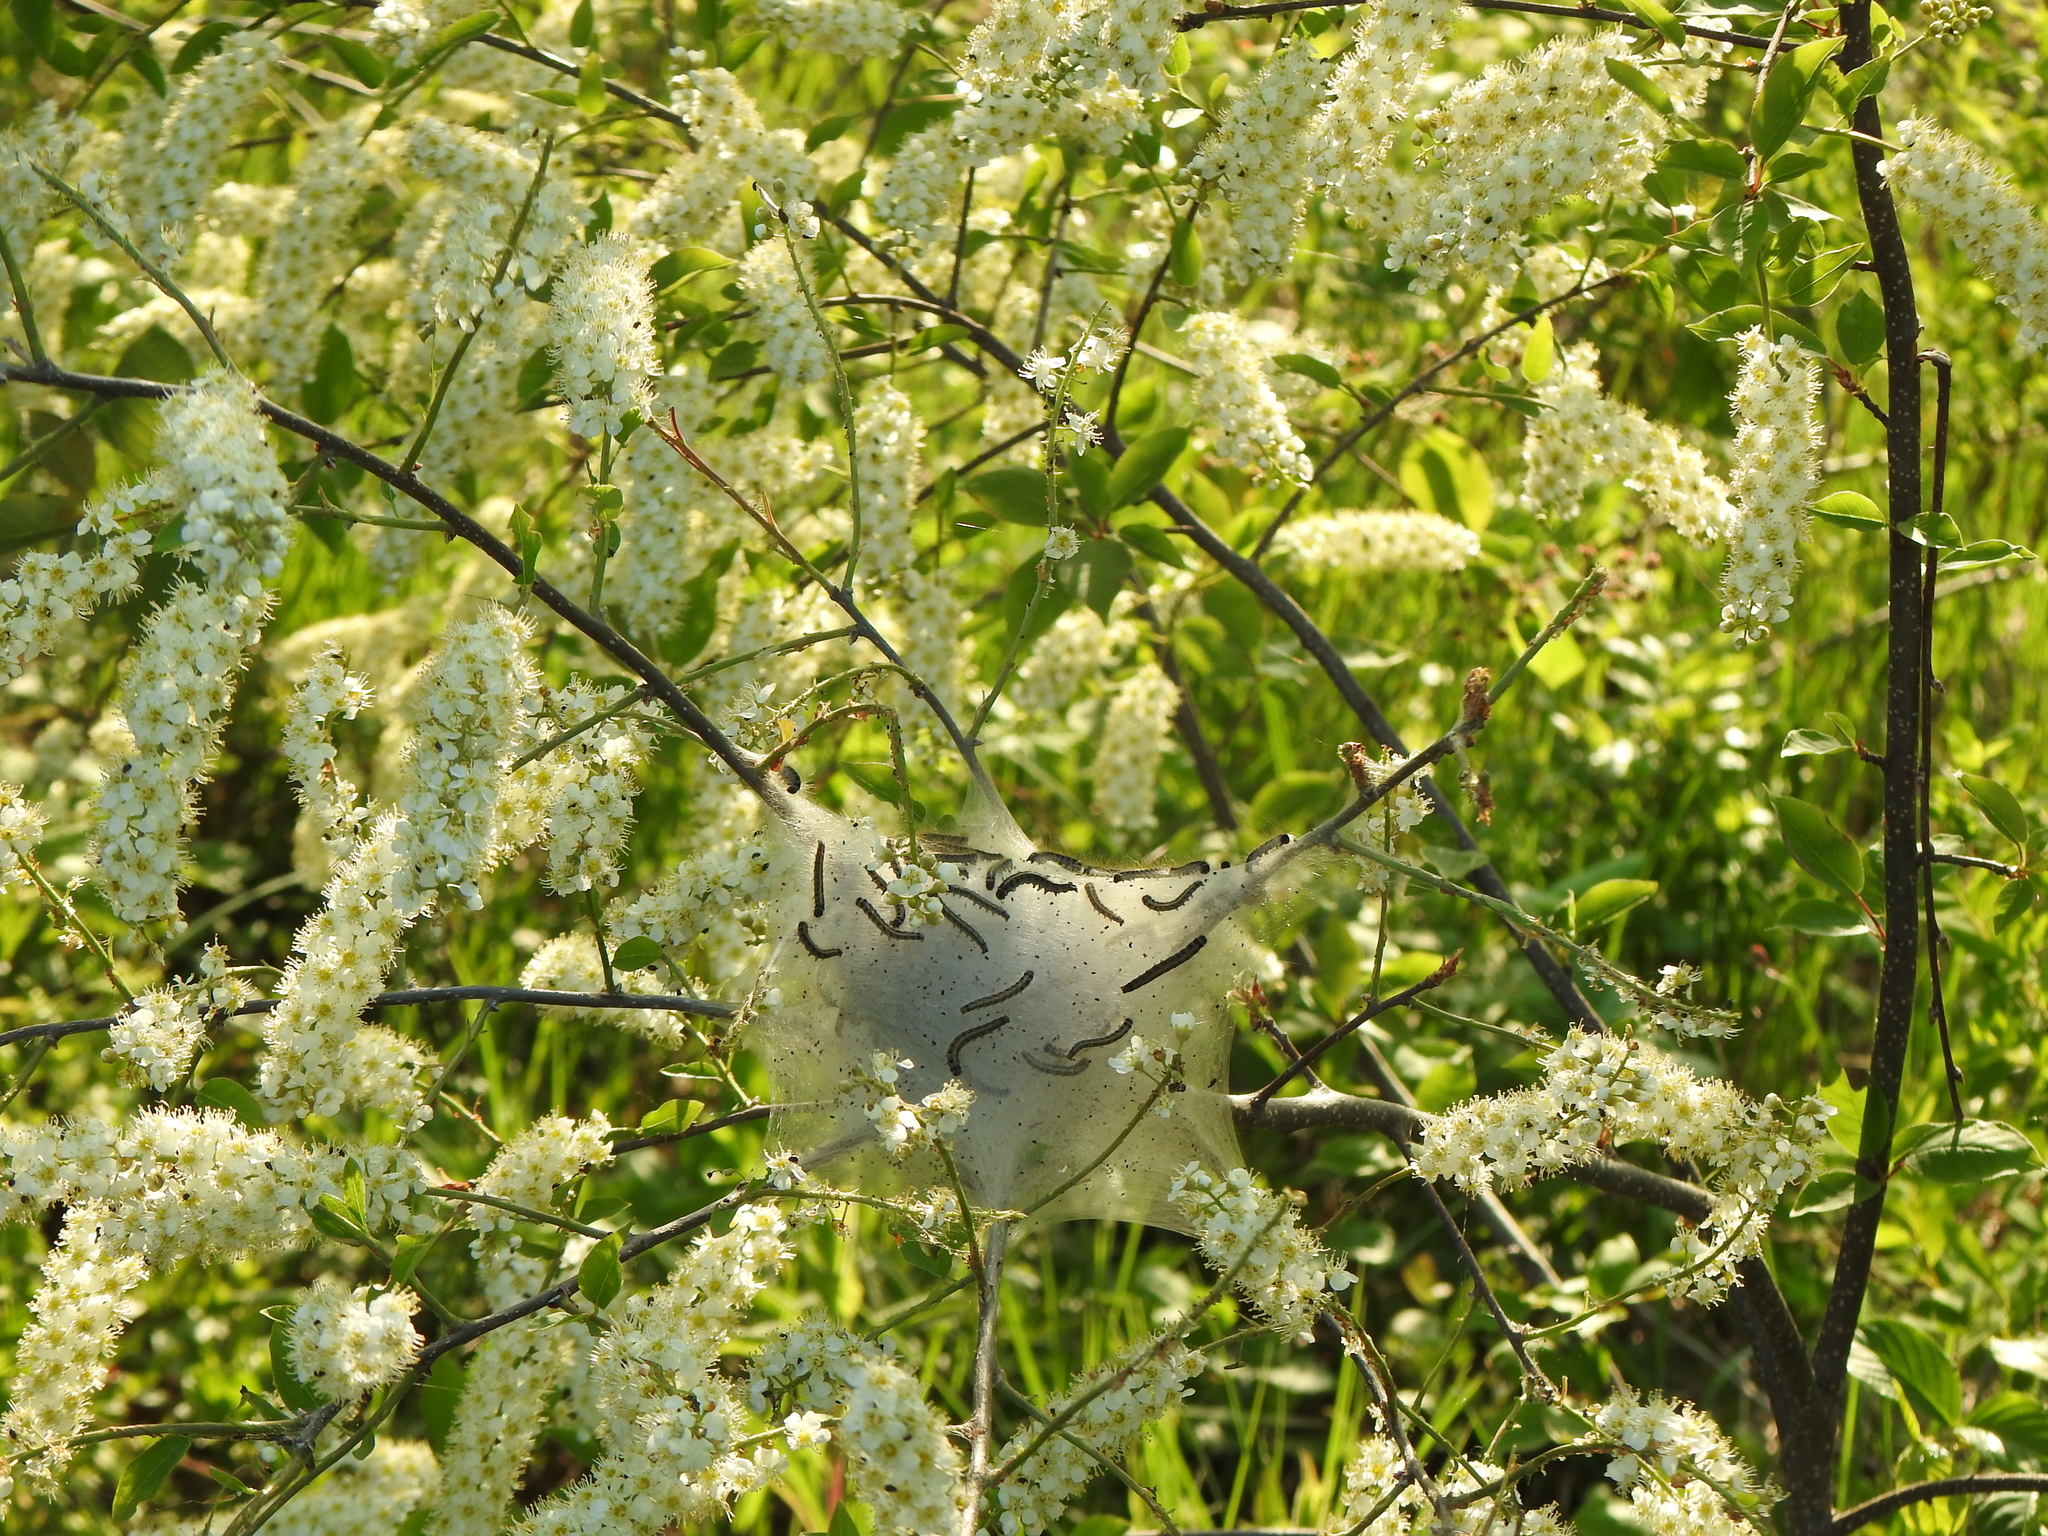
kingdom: Animalia
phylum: Arthropoda
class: Insecta
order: Lepidoptera
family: Lasiocampidae
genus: Malacosoma
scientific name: Malacosoma americana
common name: Eastern tent caterpillar moth
